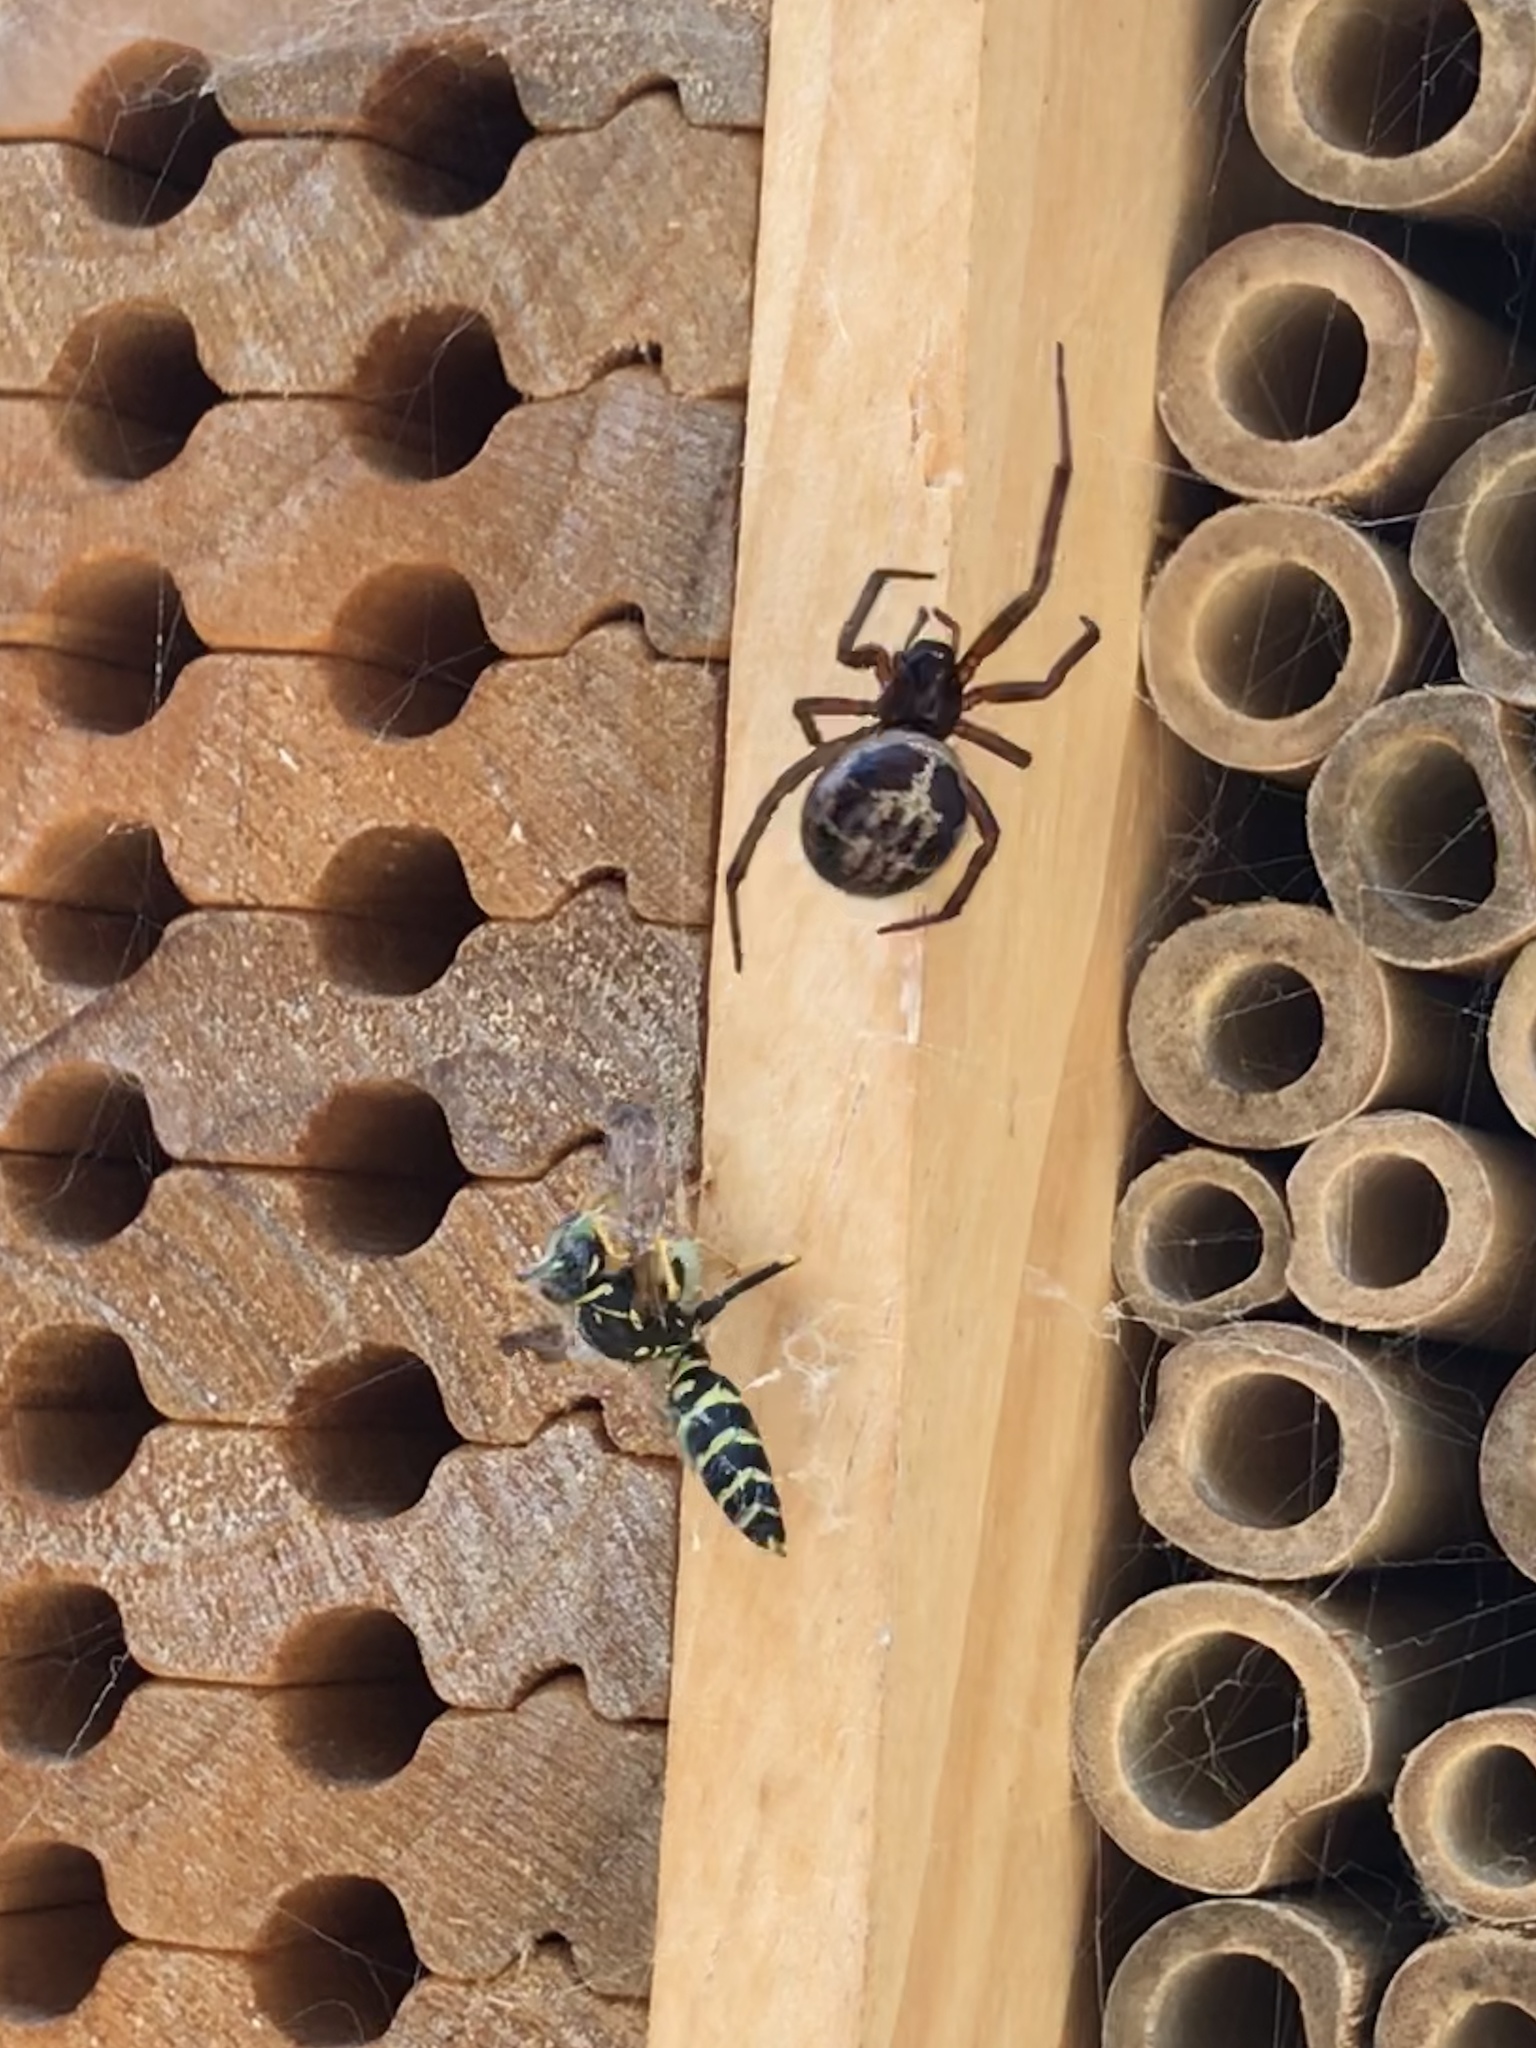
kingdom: Animalia
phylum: Arthropoda
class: Arachnida
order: Araneae
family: Theridiidae
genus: Steatoda
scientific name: Steatoda nobilis
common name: Cobweb weaver
